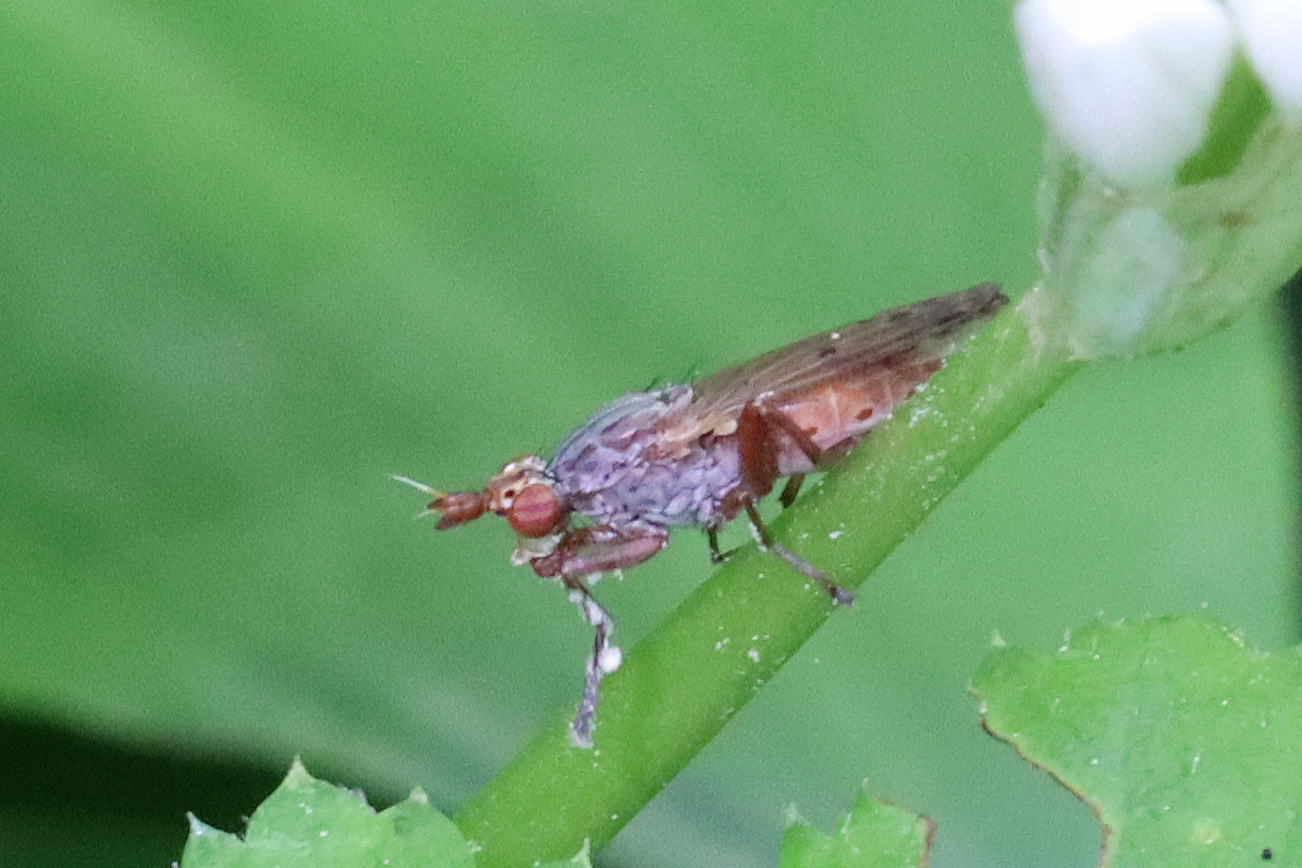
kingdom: Animalia
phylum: Arthropoda
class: Insecta
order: Diptera
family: Sciomyzidae
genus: Elgiva
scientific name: Elgiva cucularia
